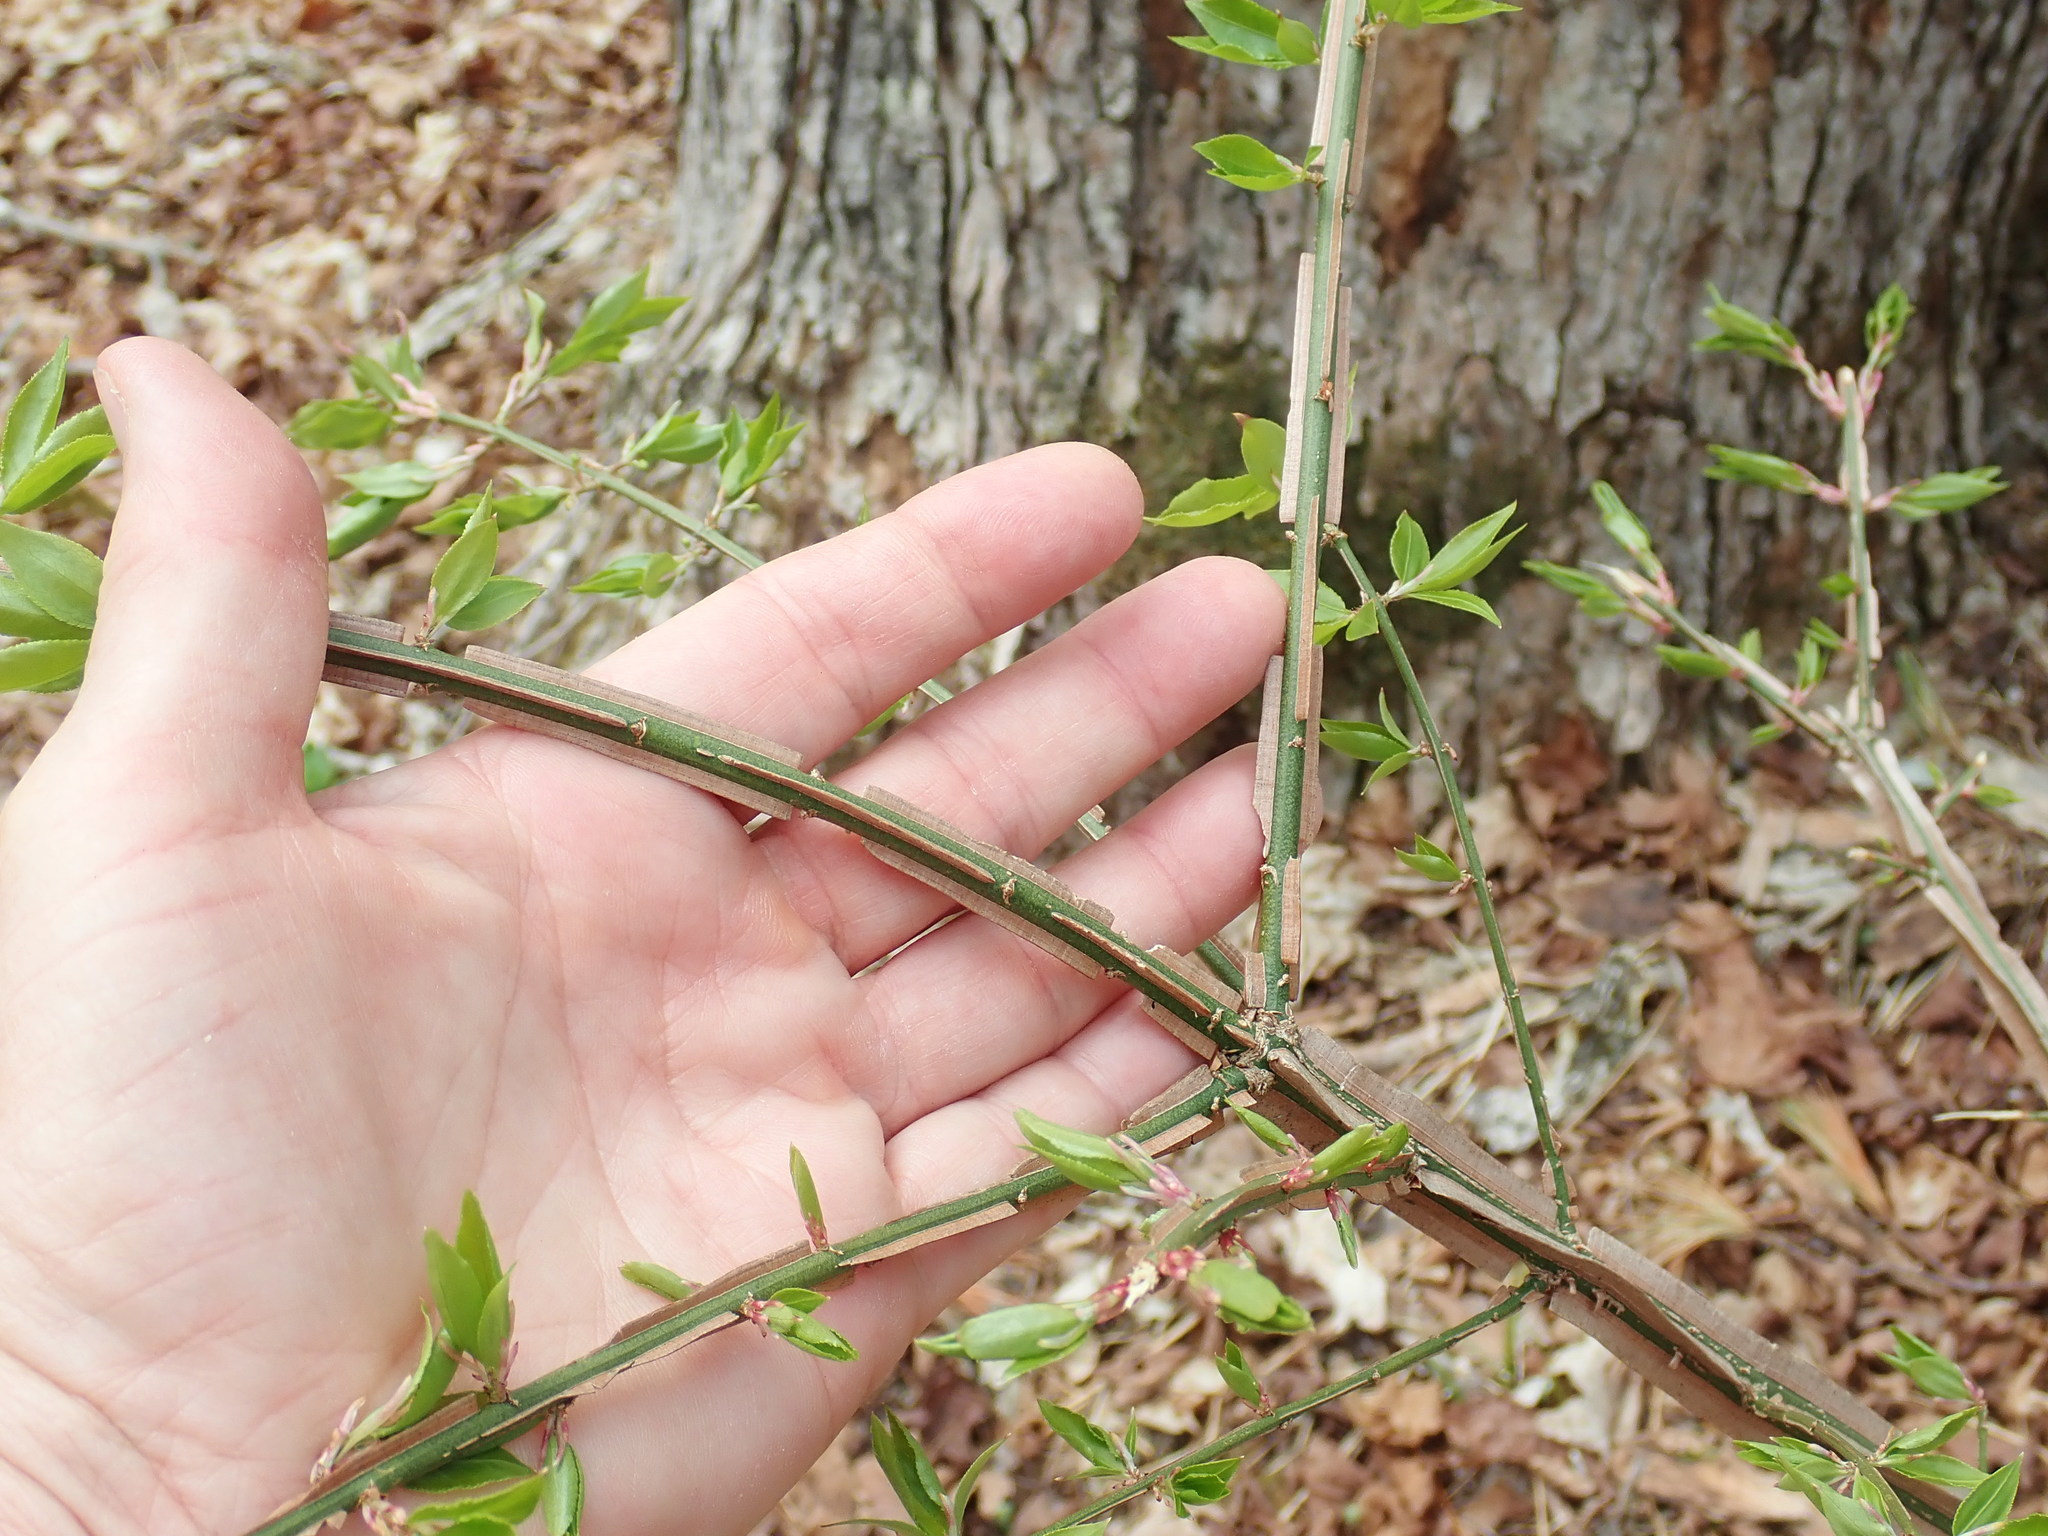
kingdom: Plantae
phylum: Tracheophyta
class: Magnoliopsida
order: Celastrales
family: Celastraceae
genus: Euonymus
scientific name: Euonymus alatus
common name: Winged euonymus
